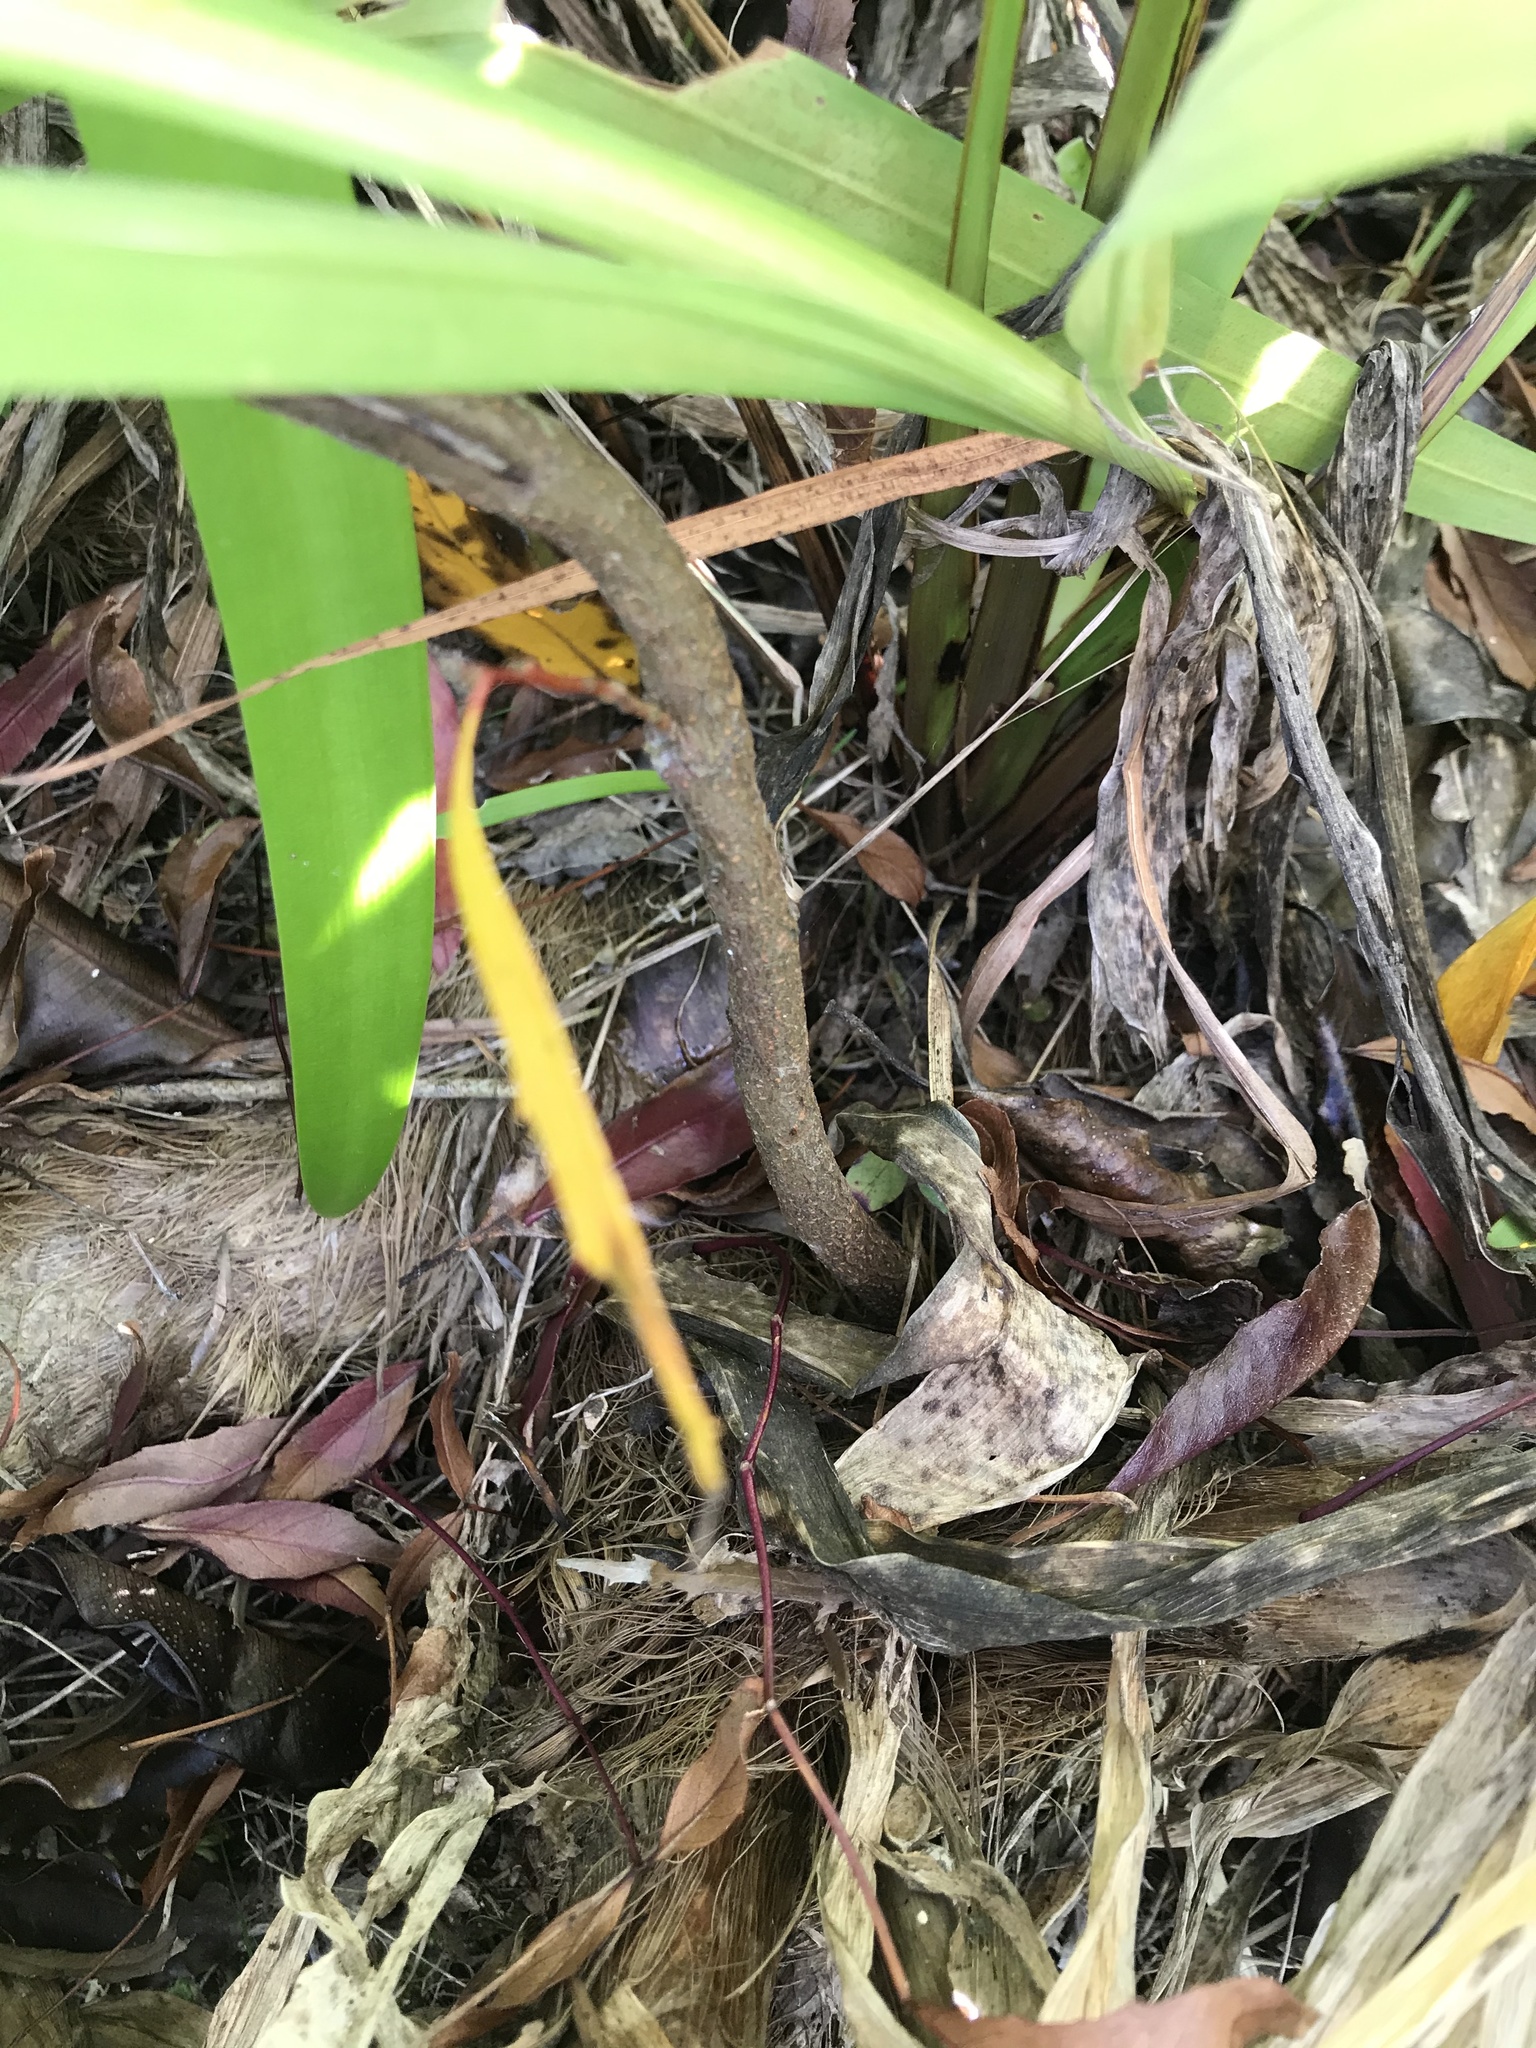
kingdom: Plantae
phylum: Tracheophyta
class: Magnoliopsida
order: Proteales
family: Proteaceae
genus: Lomatia
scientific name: Lomatia myricoides
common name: Longleaf lomatia
